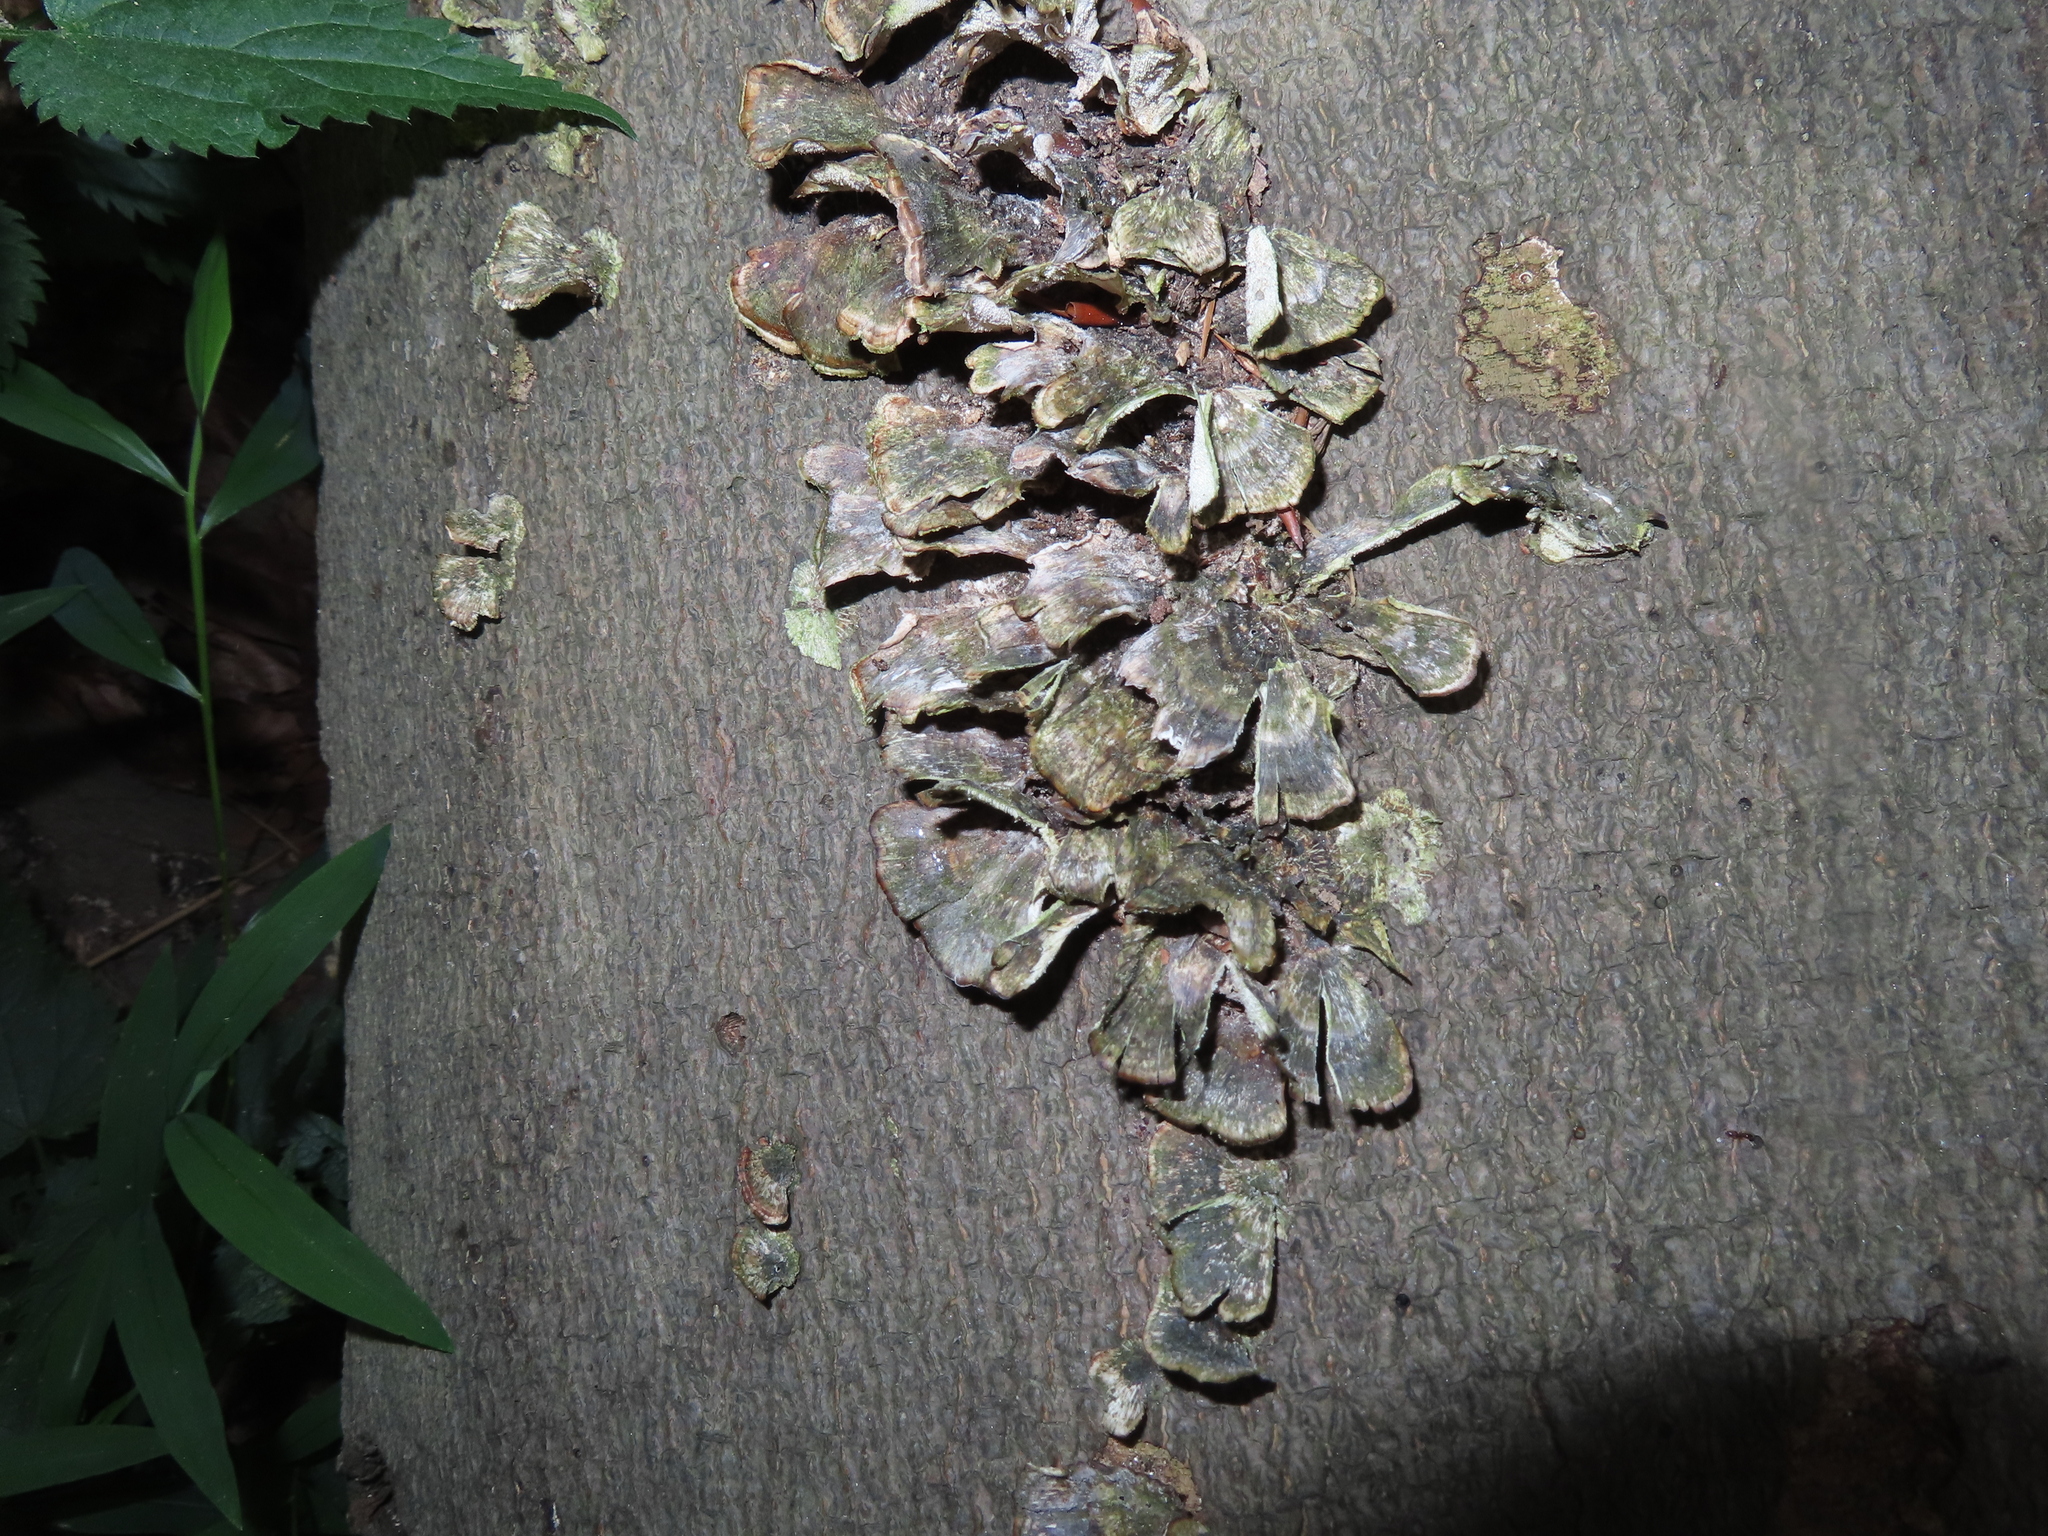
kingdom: Fungi
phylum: Basidiomycota
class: Agaricomycetes
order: Polyporales
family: Polyporaceae
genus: Trametes
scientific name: Trametes versicolor
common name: Turkeytail
